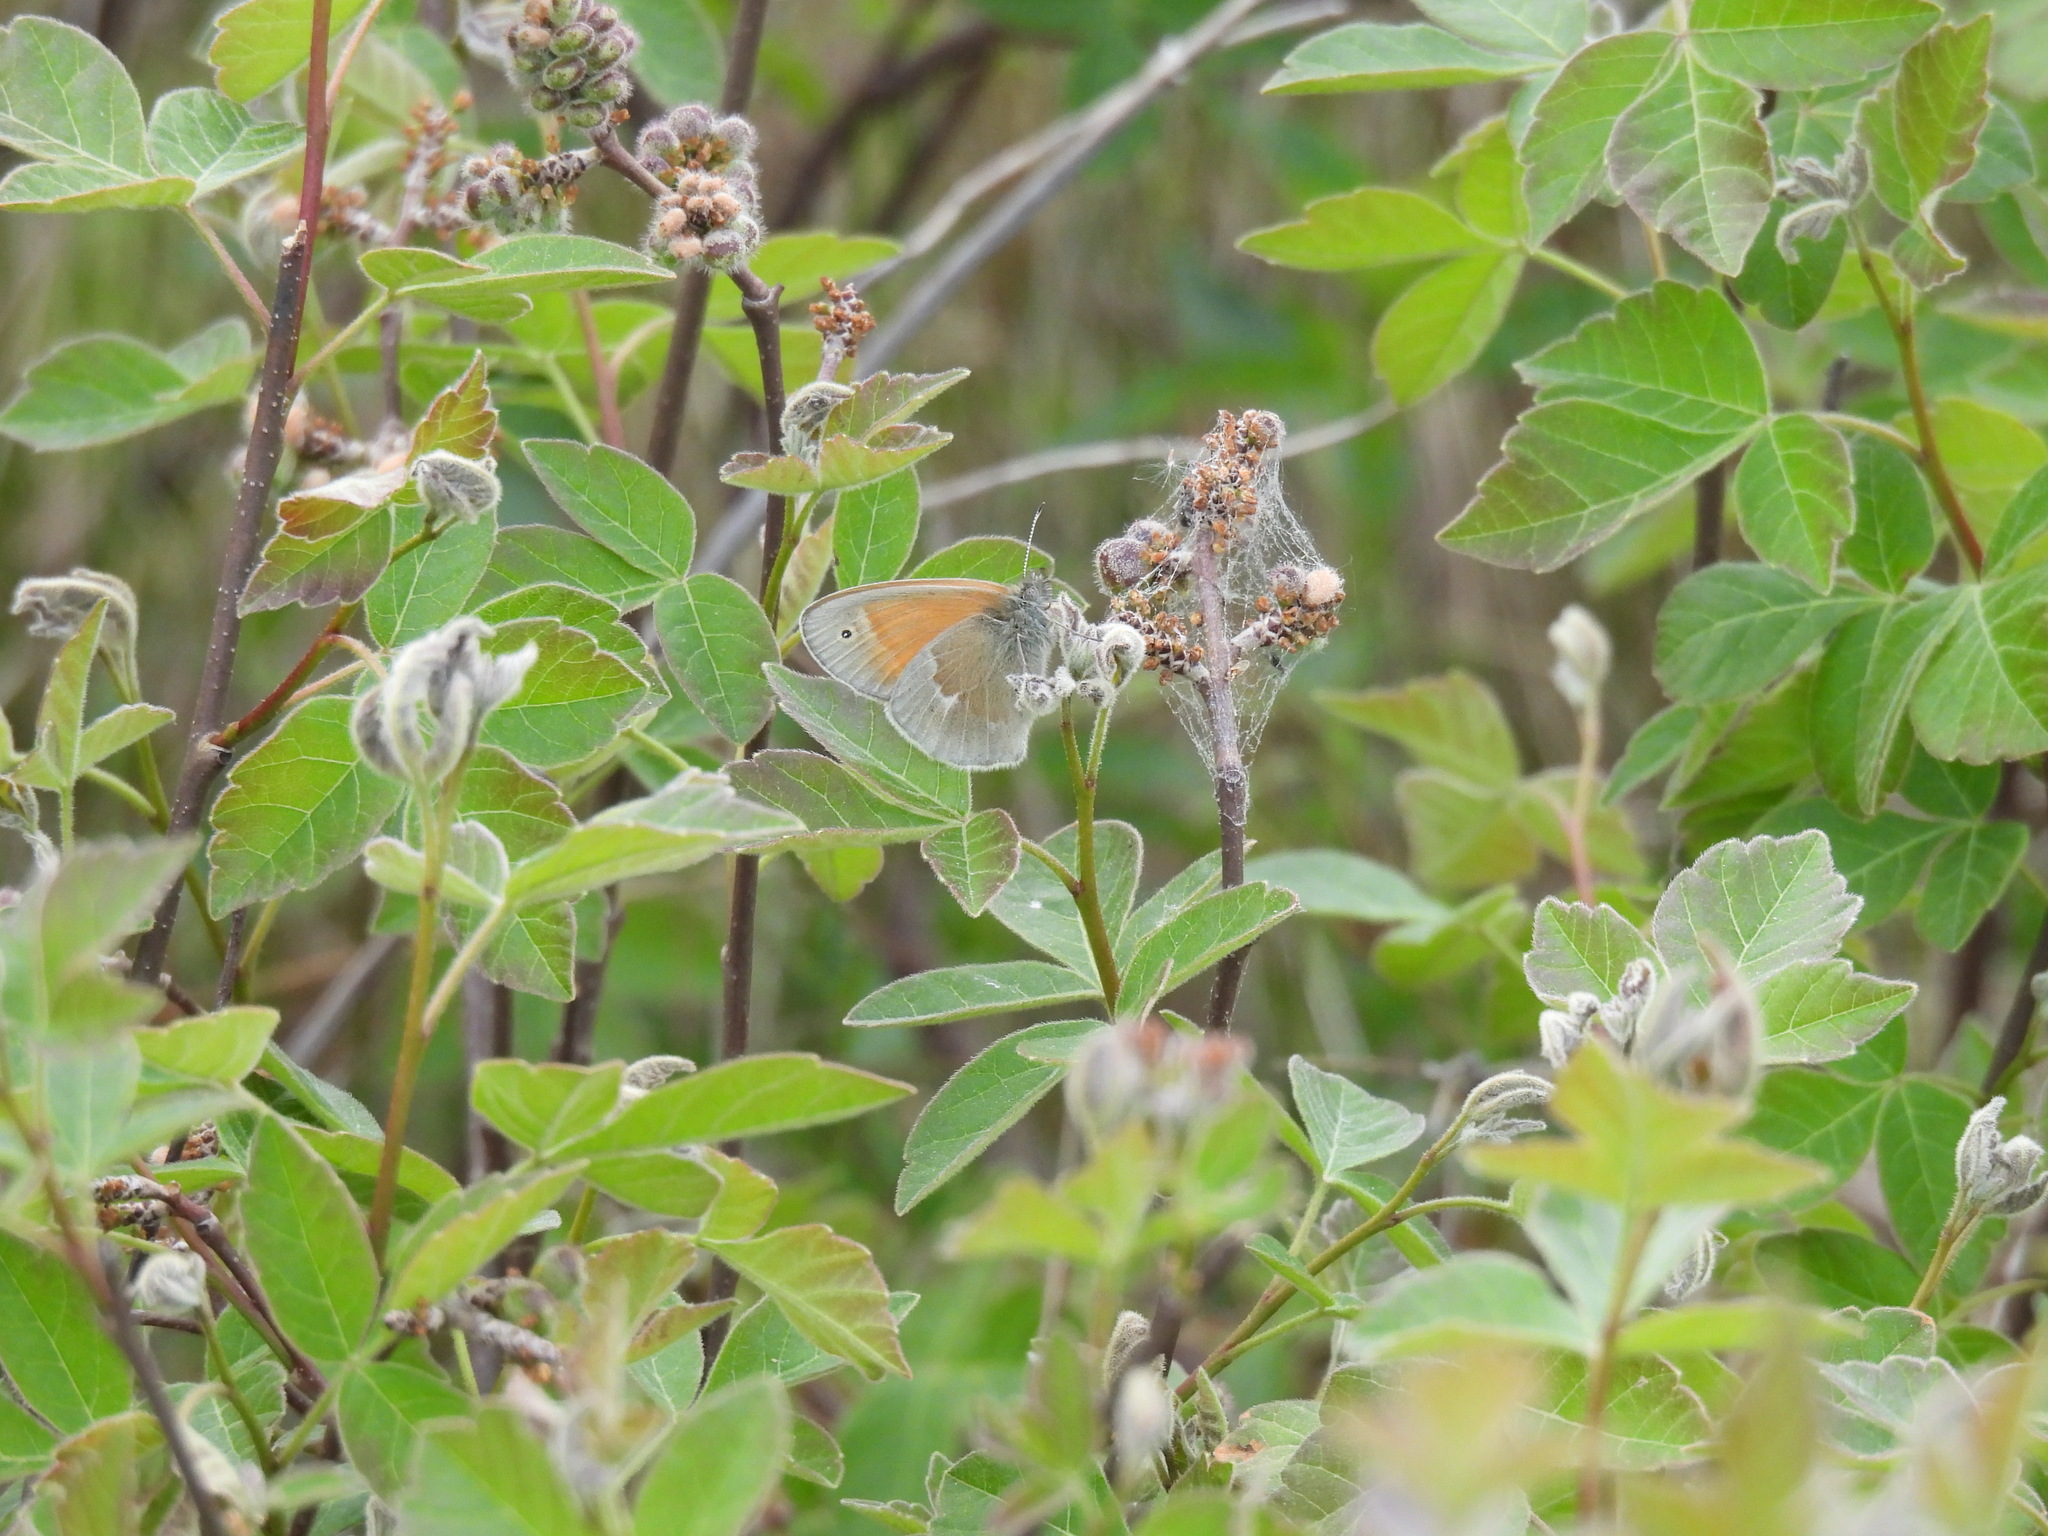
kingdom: Animalia
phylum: Arthropoda
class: Insecta
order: Lepidoptera
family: Nymphalidae
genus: Coenonympha
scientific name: Coenonympha california
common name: Common ringlet
